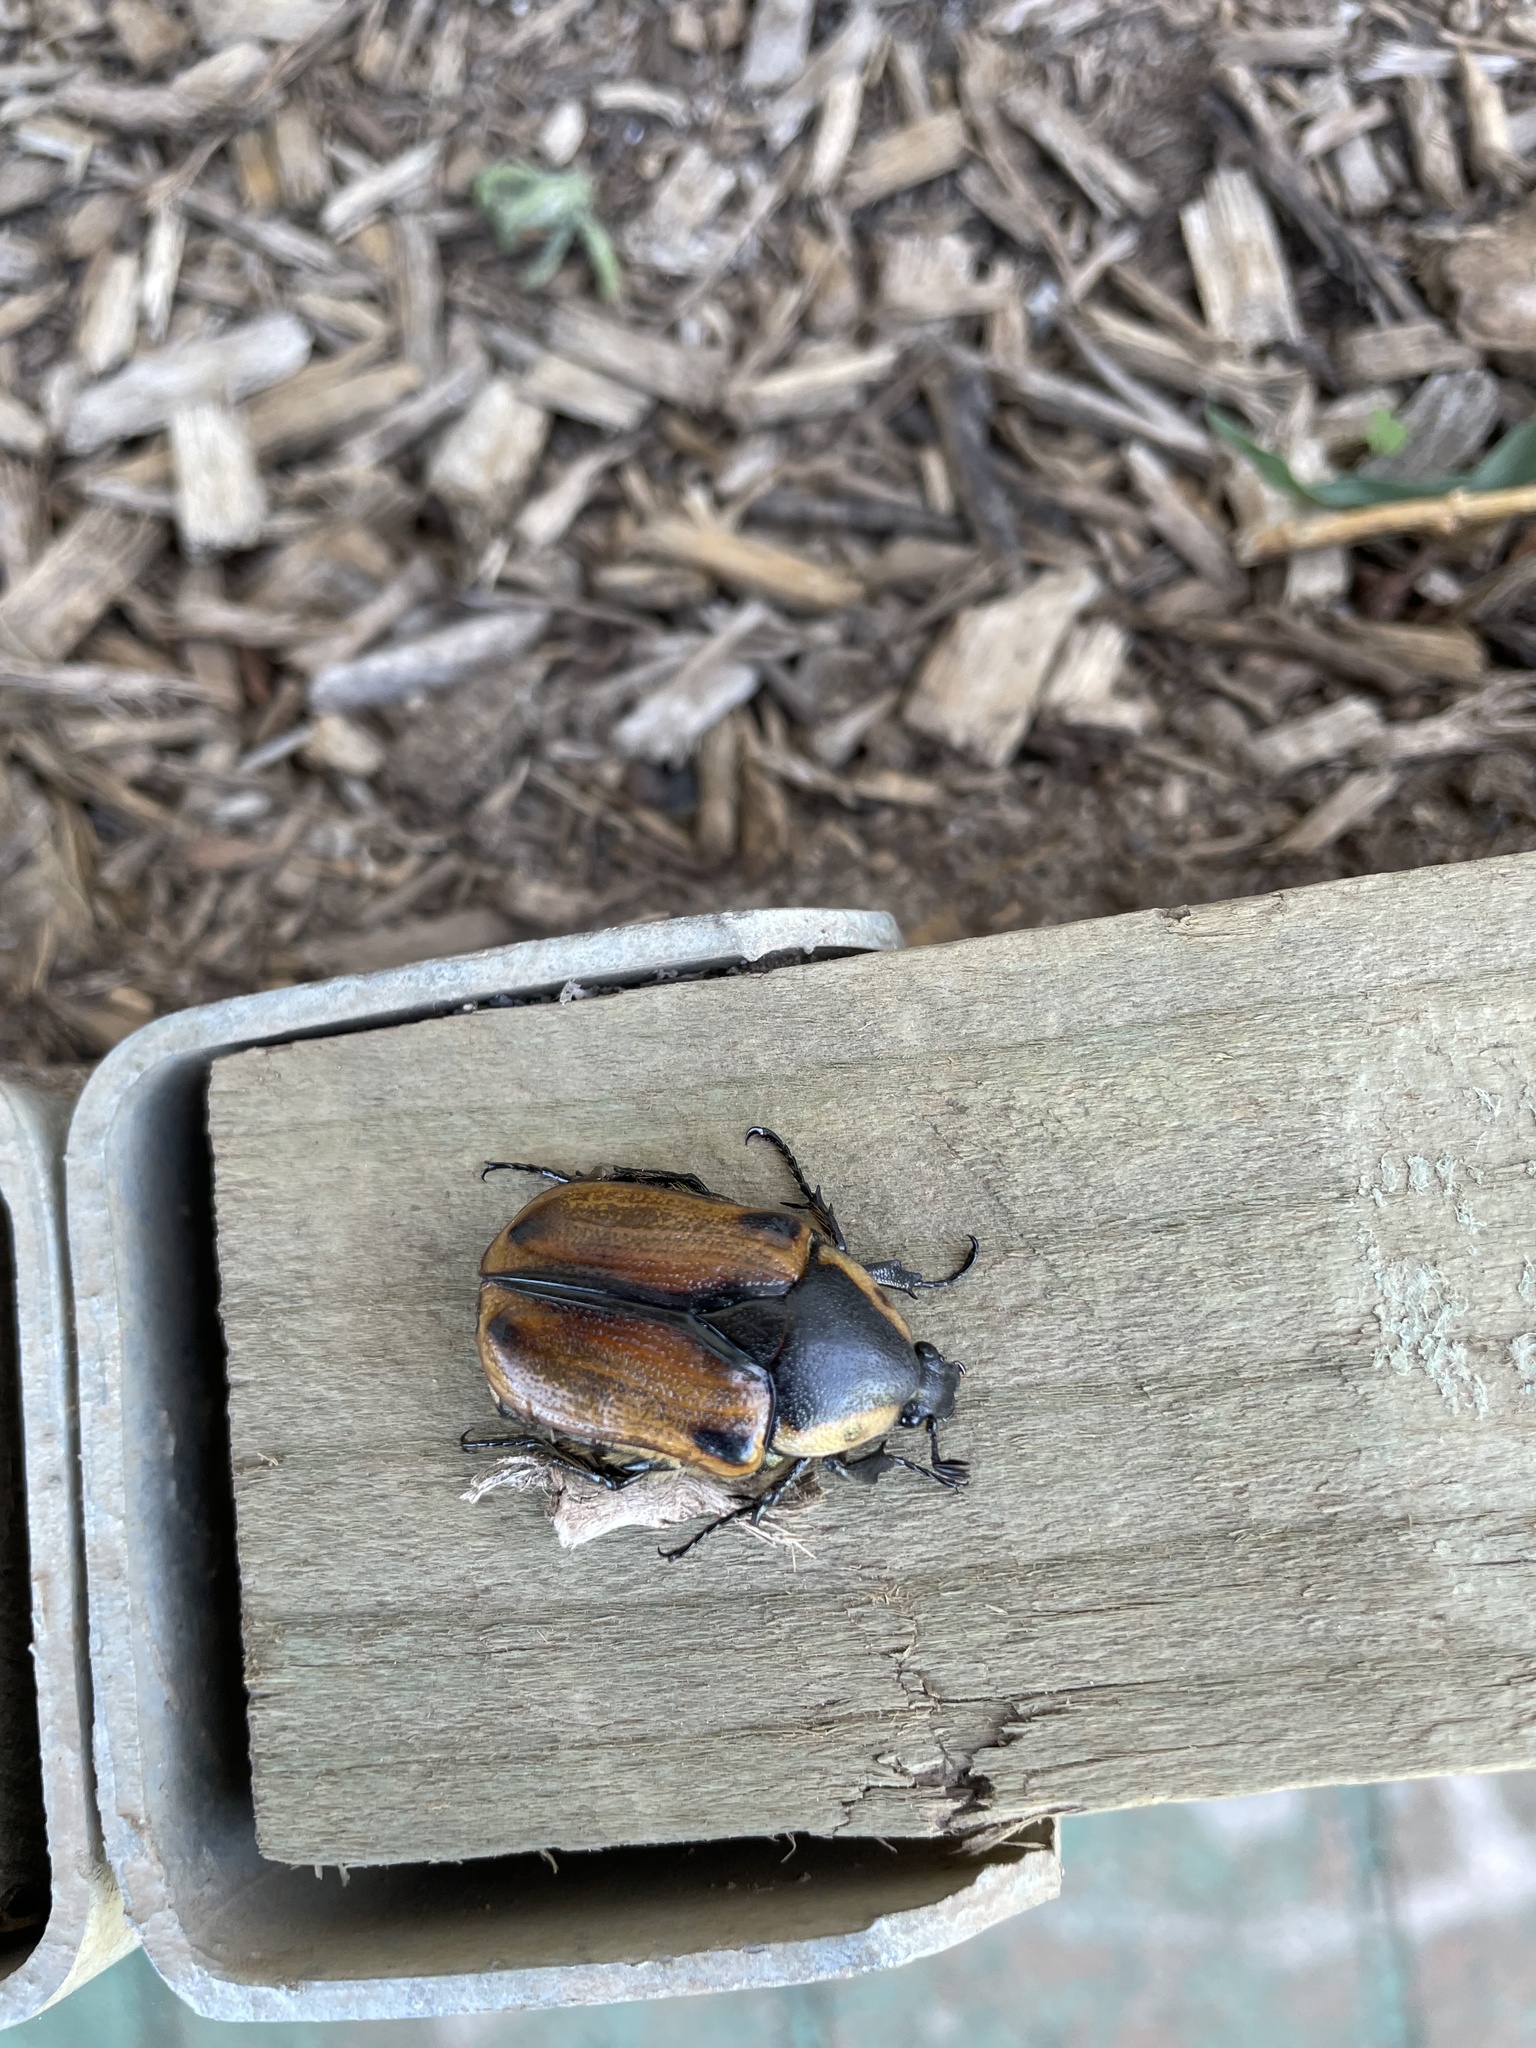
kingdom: Animalia
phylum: Arthropoda
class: Insecta
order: Coleoptera
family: Scarabaeidae
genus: Chondropyga
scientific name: Chondropyga dorsalis
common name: Cowboy beetle
